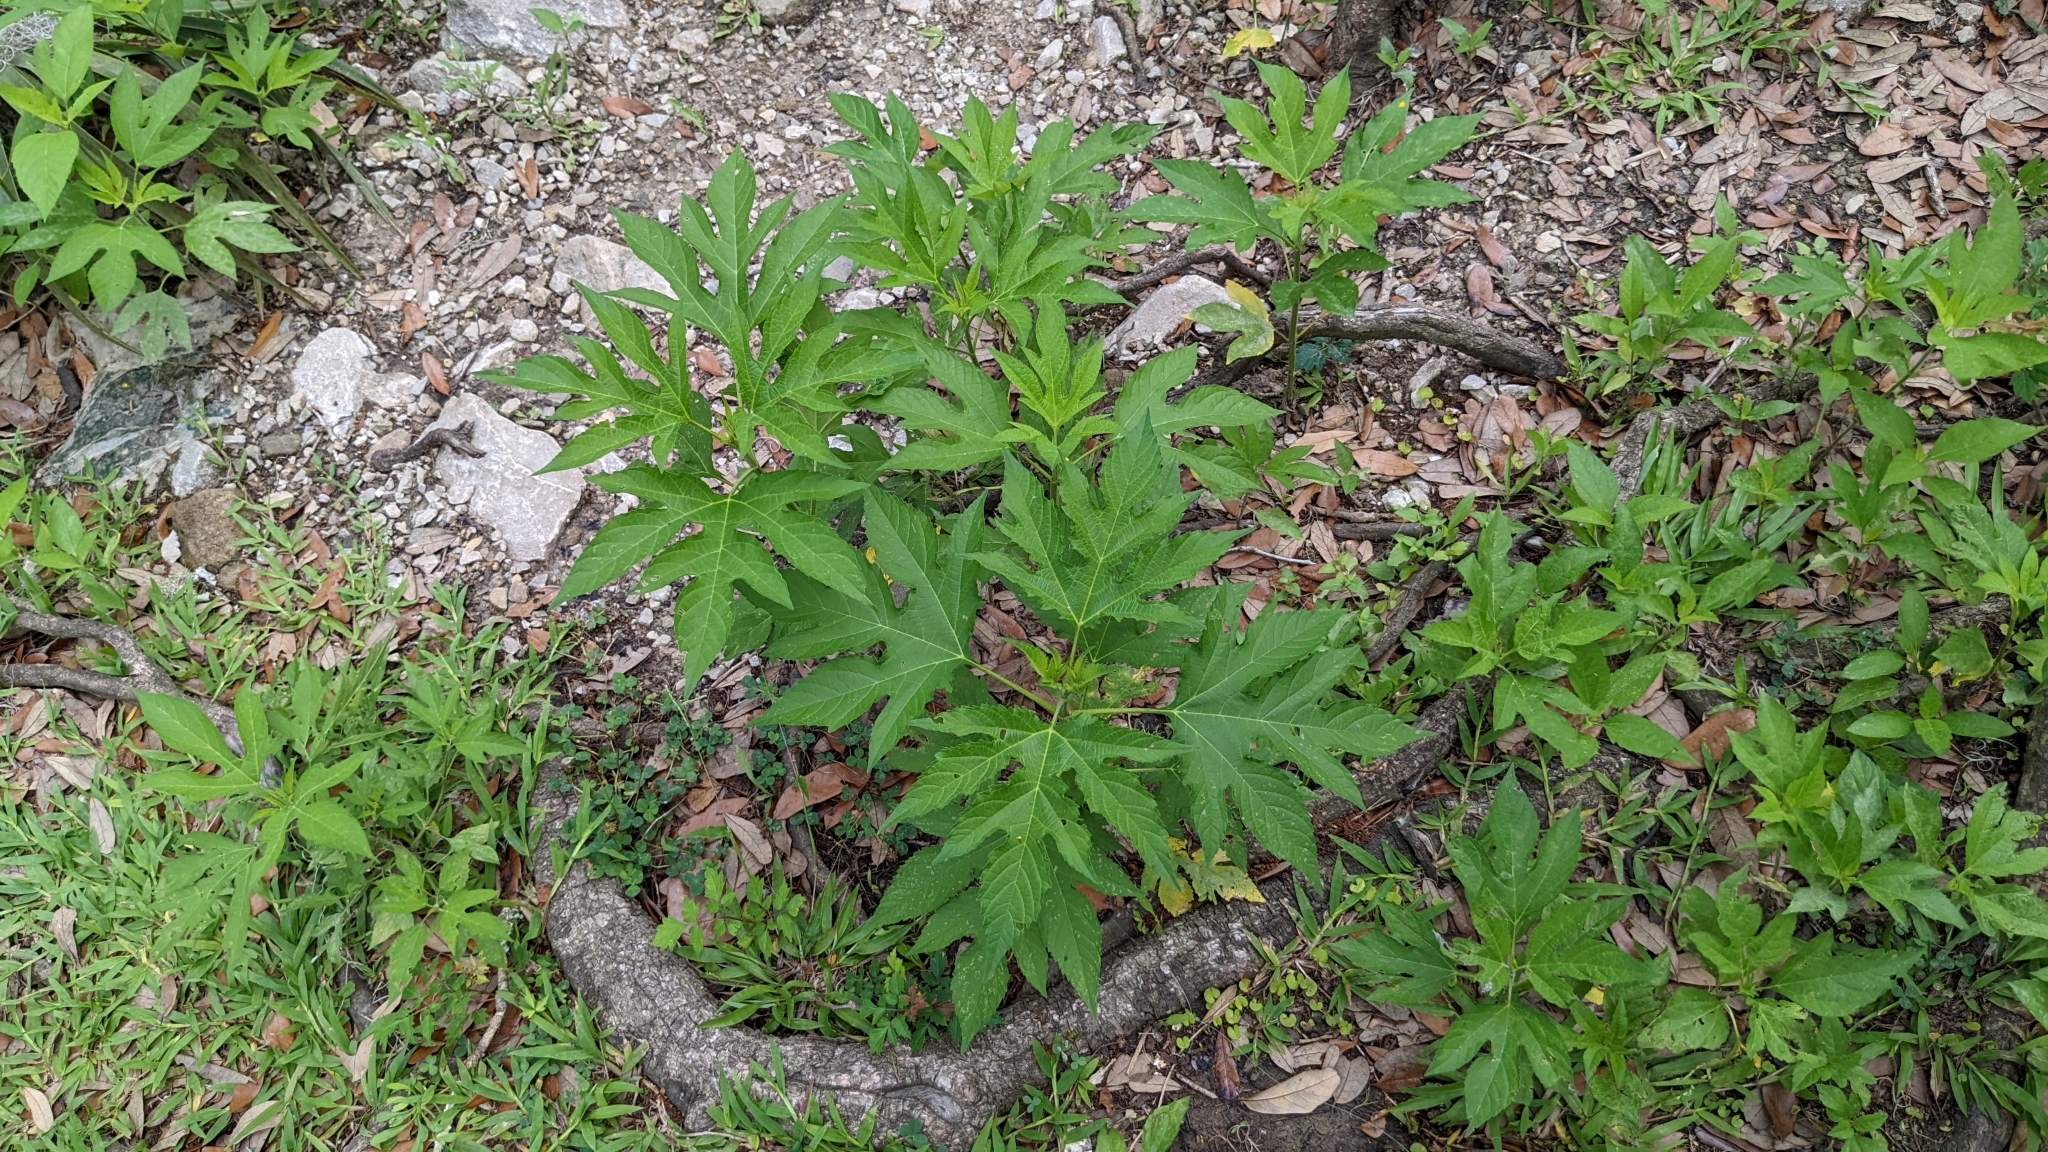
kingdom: Plantae
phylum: Tracheophyta
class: Magnoliopsida
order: Asterales
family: Asteraceae
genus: Ambrosia
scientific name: Ambrosia trifida
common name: Giant ragweed
